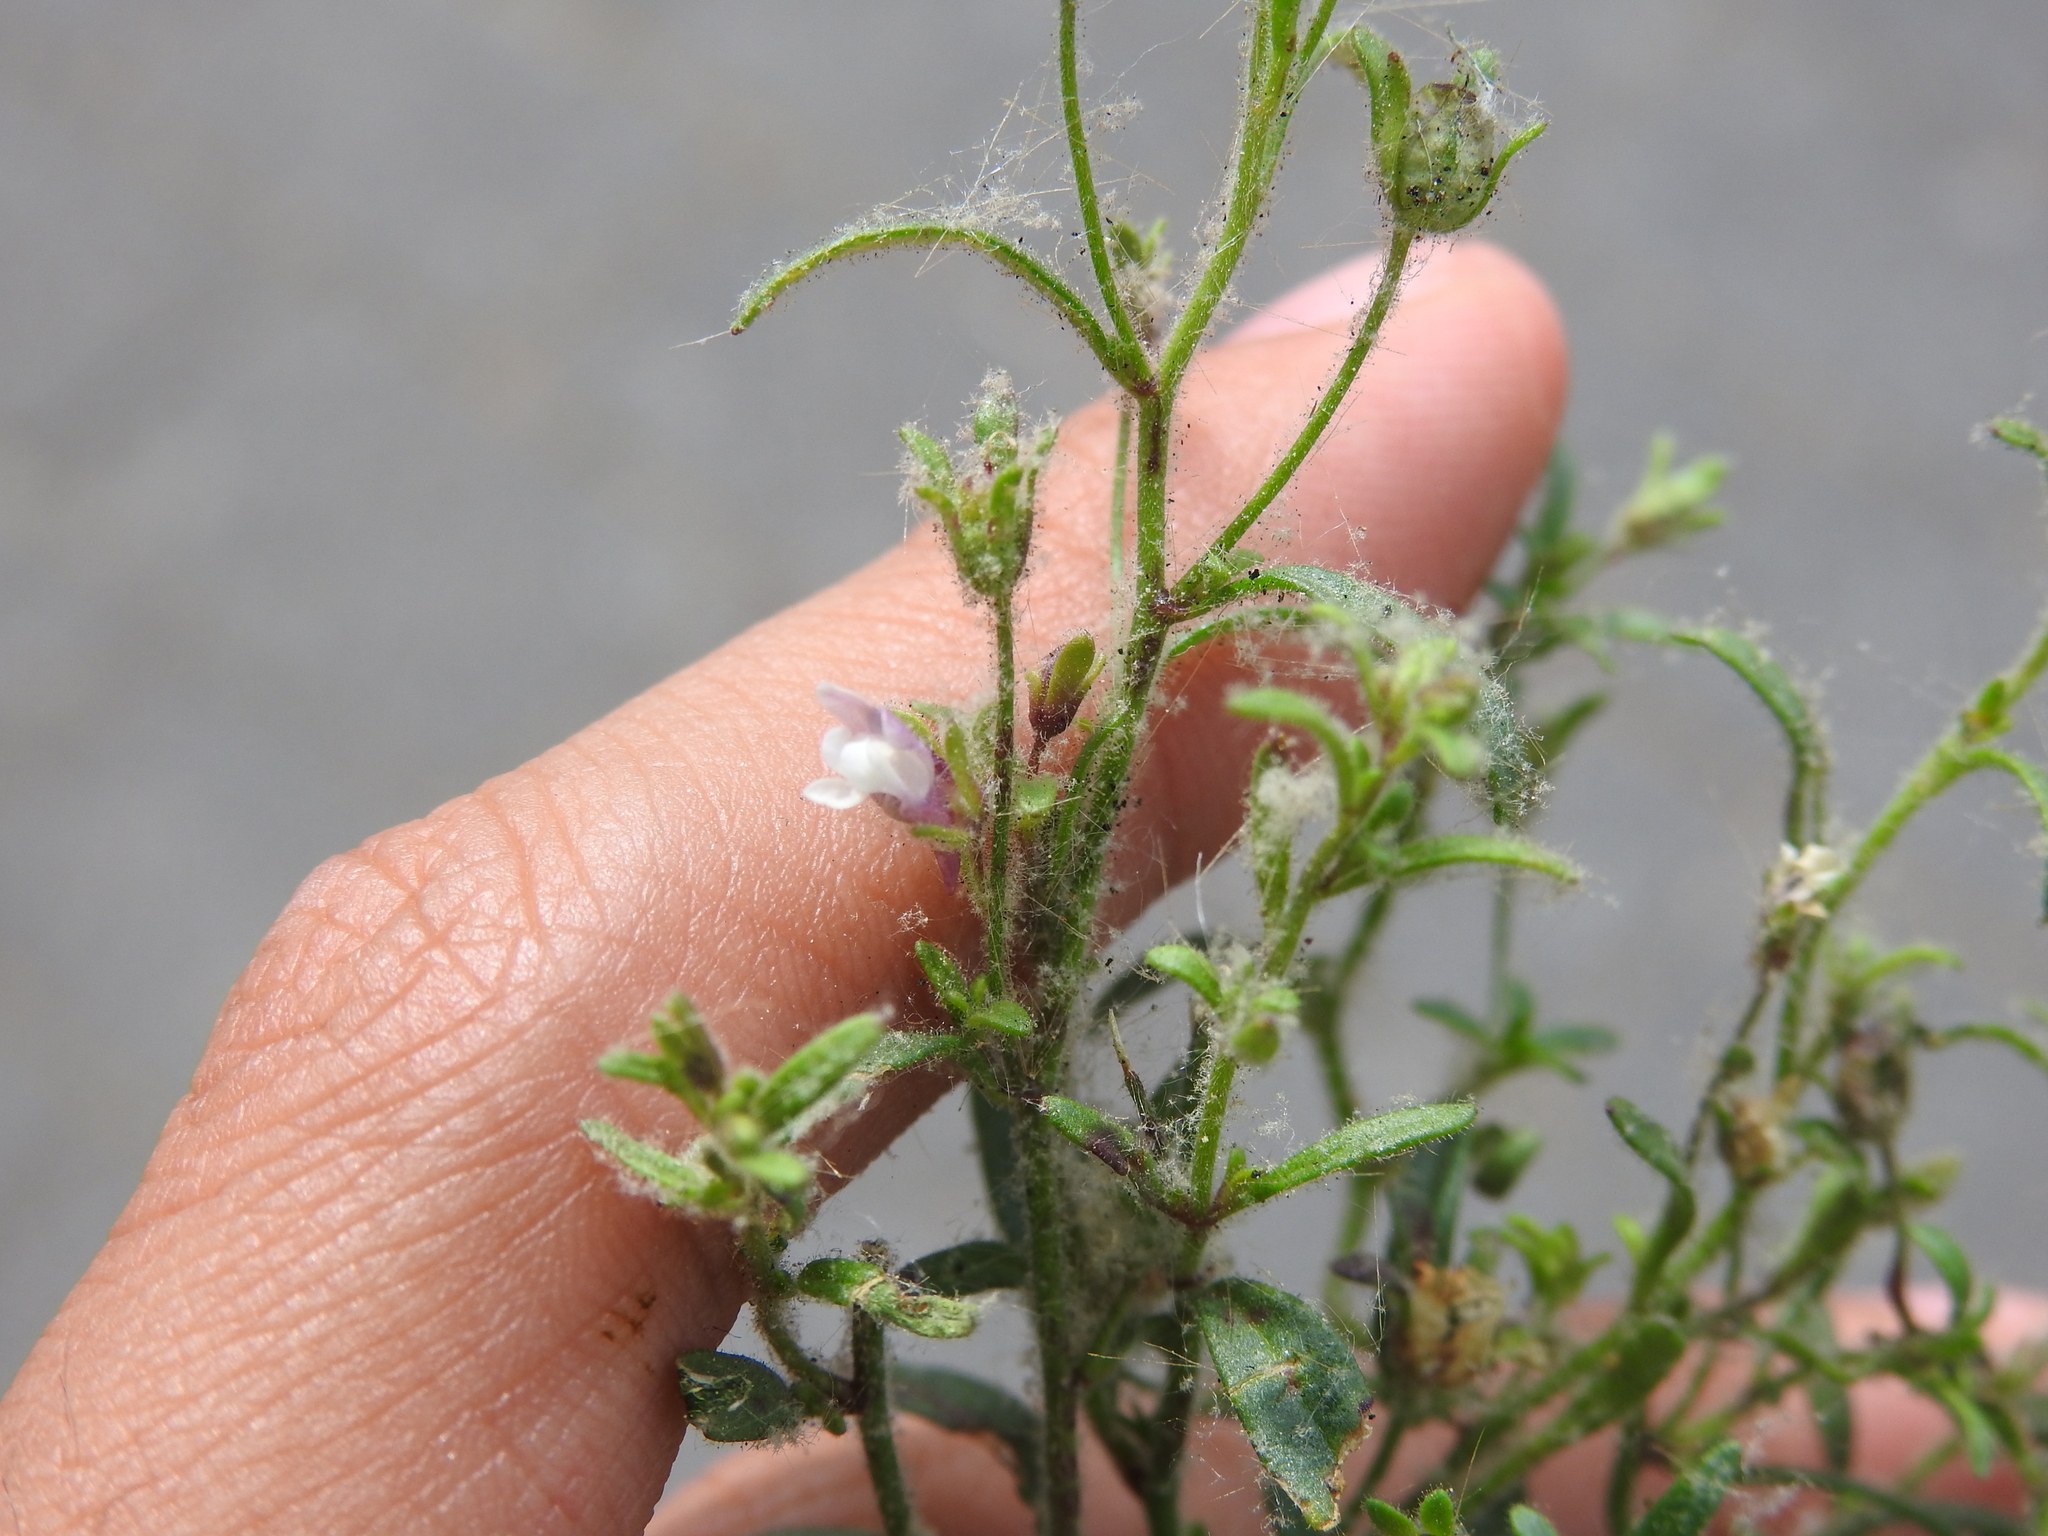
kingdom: Plantae
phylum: Tracheophyta
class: Magnoliopsida
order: Lamiales
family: Plantaginaceae
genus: Chaenorhinum
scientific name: Chaenorhinum minus
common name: Dwarf snapdragon
